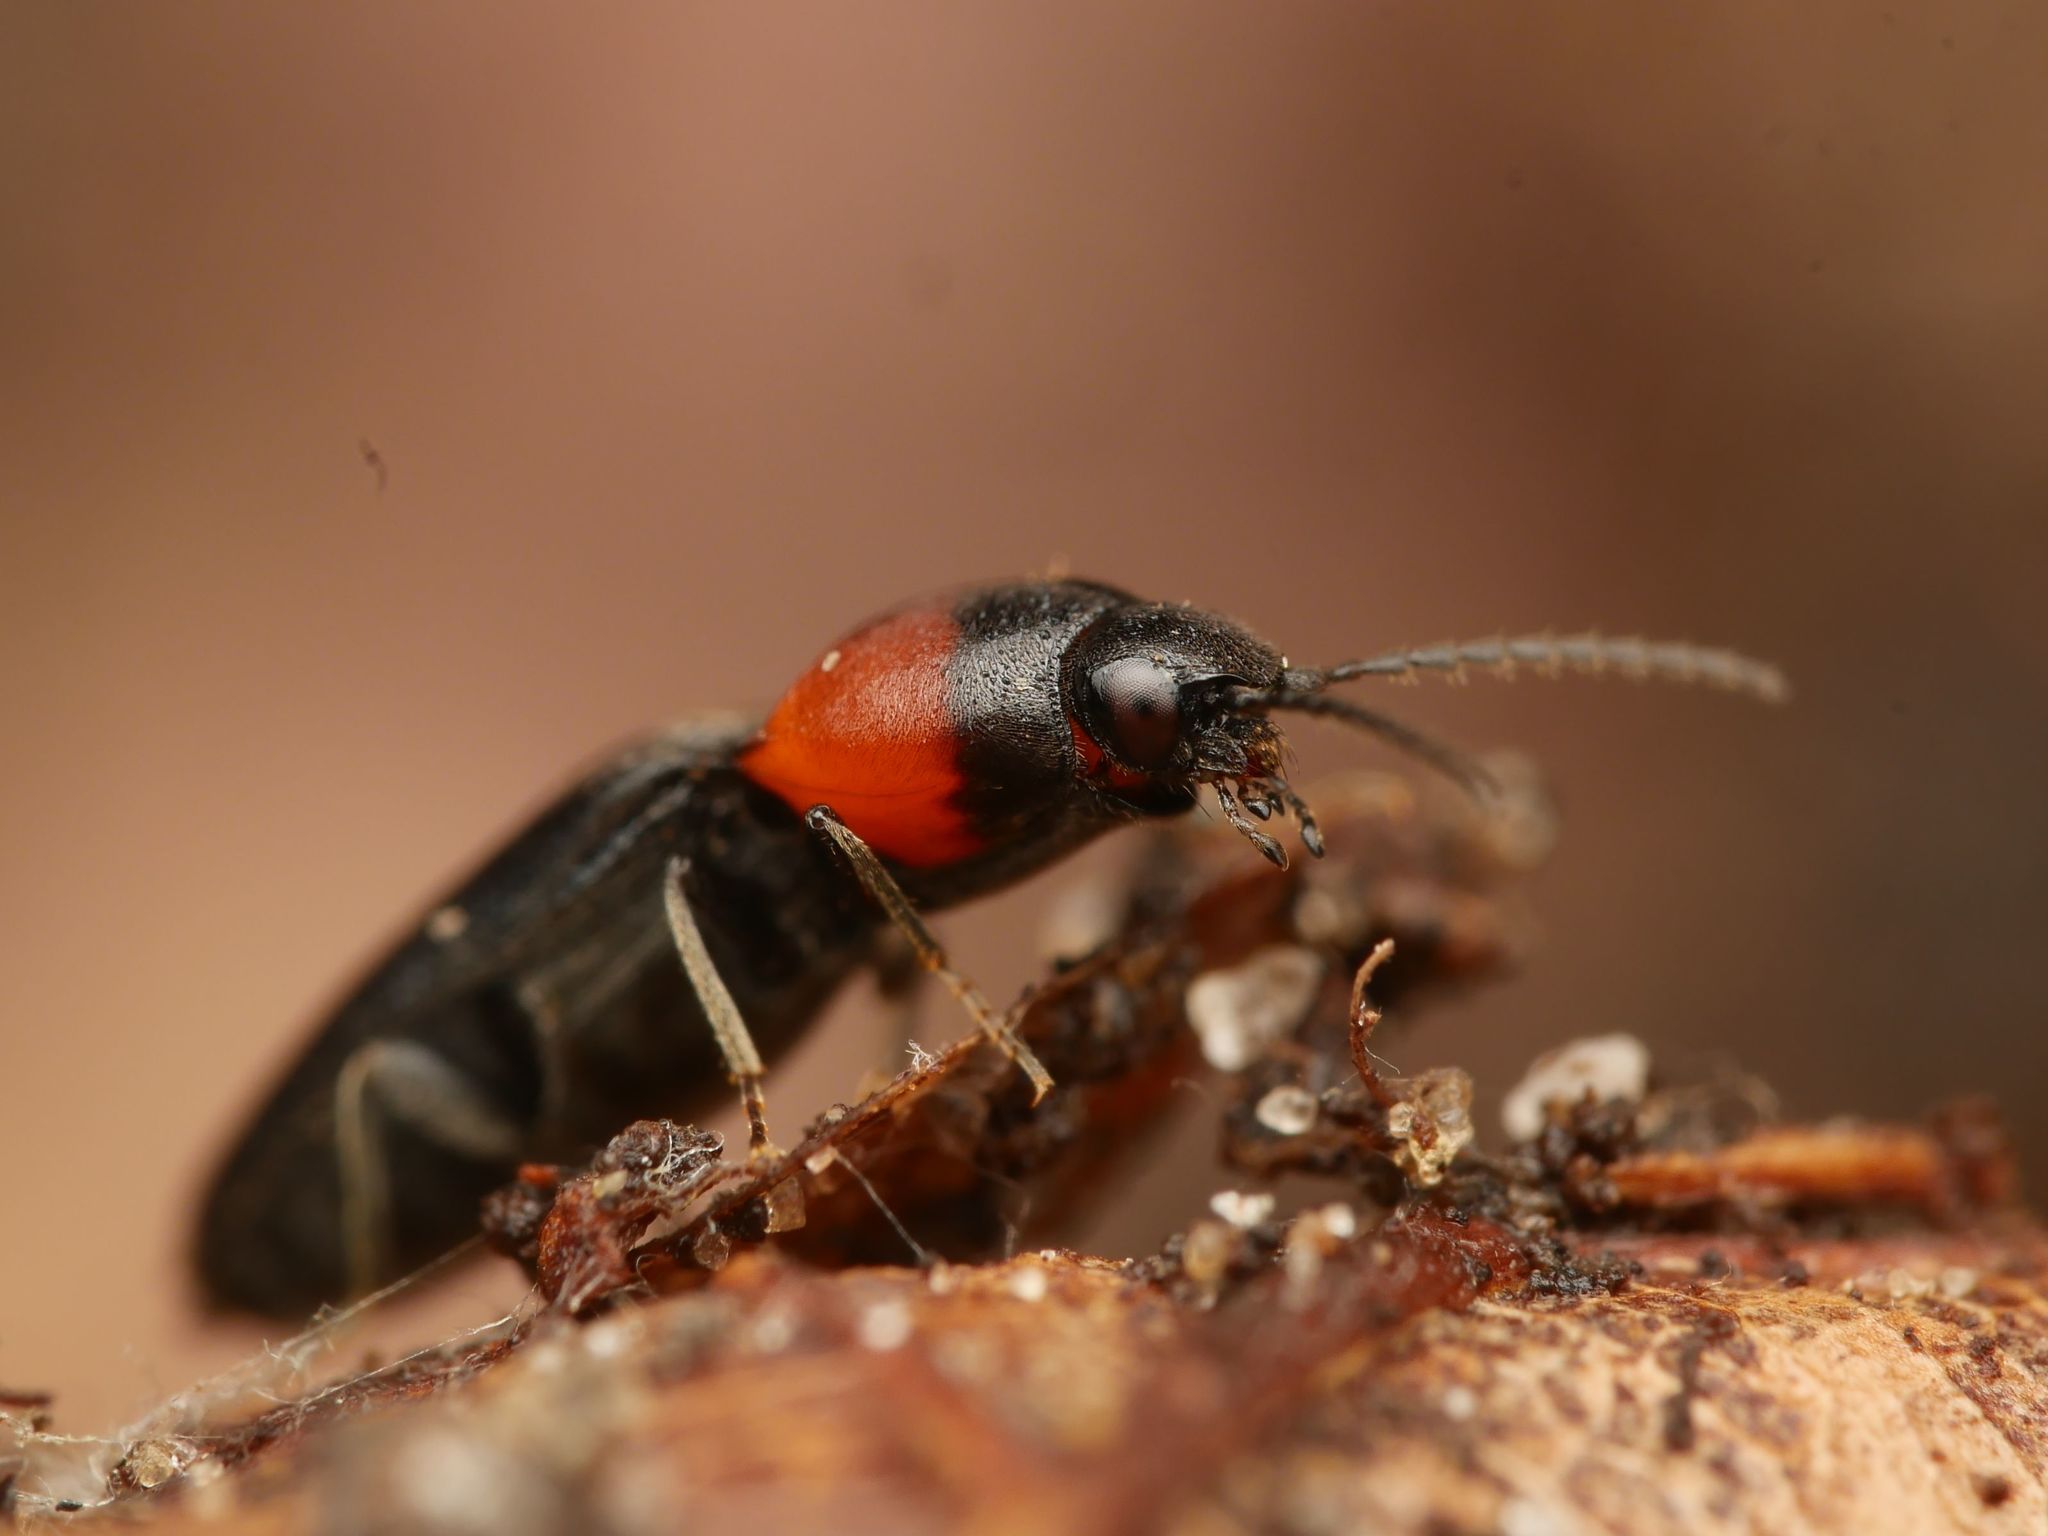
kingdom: Animalia
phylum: Arthropoda
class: Insecta
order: Coleoptera
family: Elateridae
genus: Cardiophorus
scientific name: Cardiophorus ruficollis
